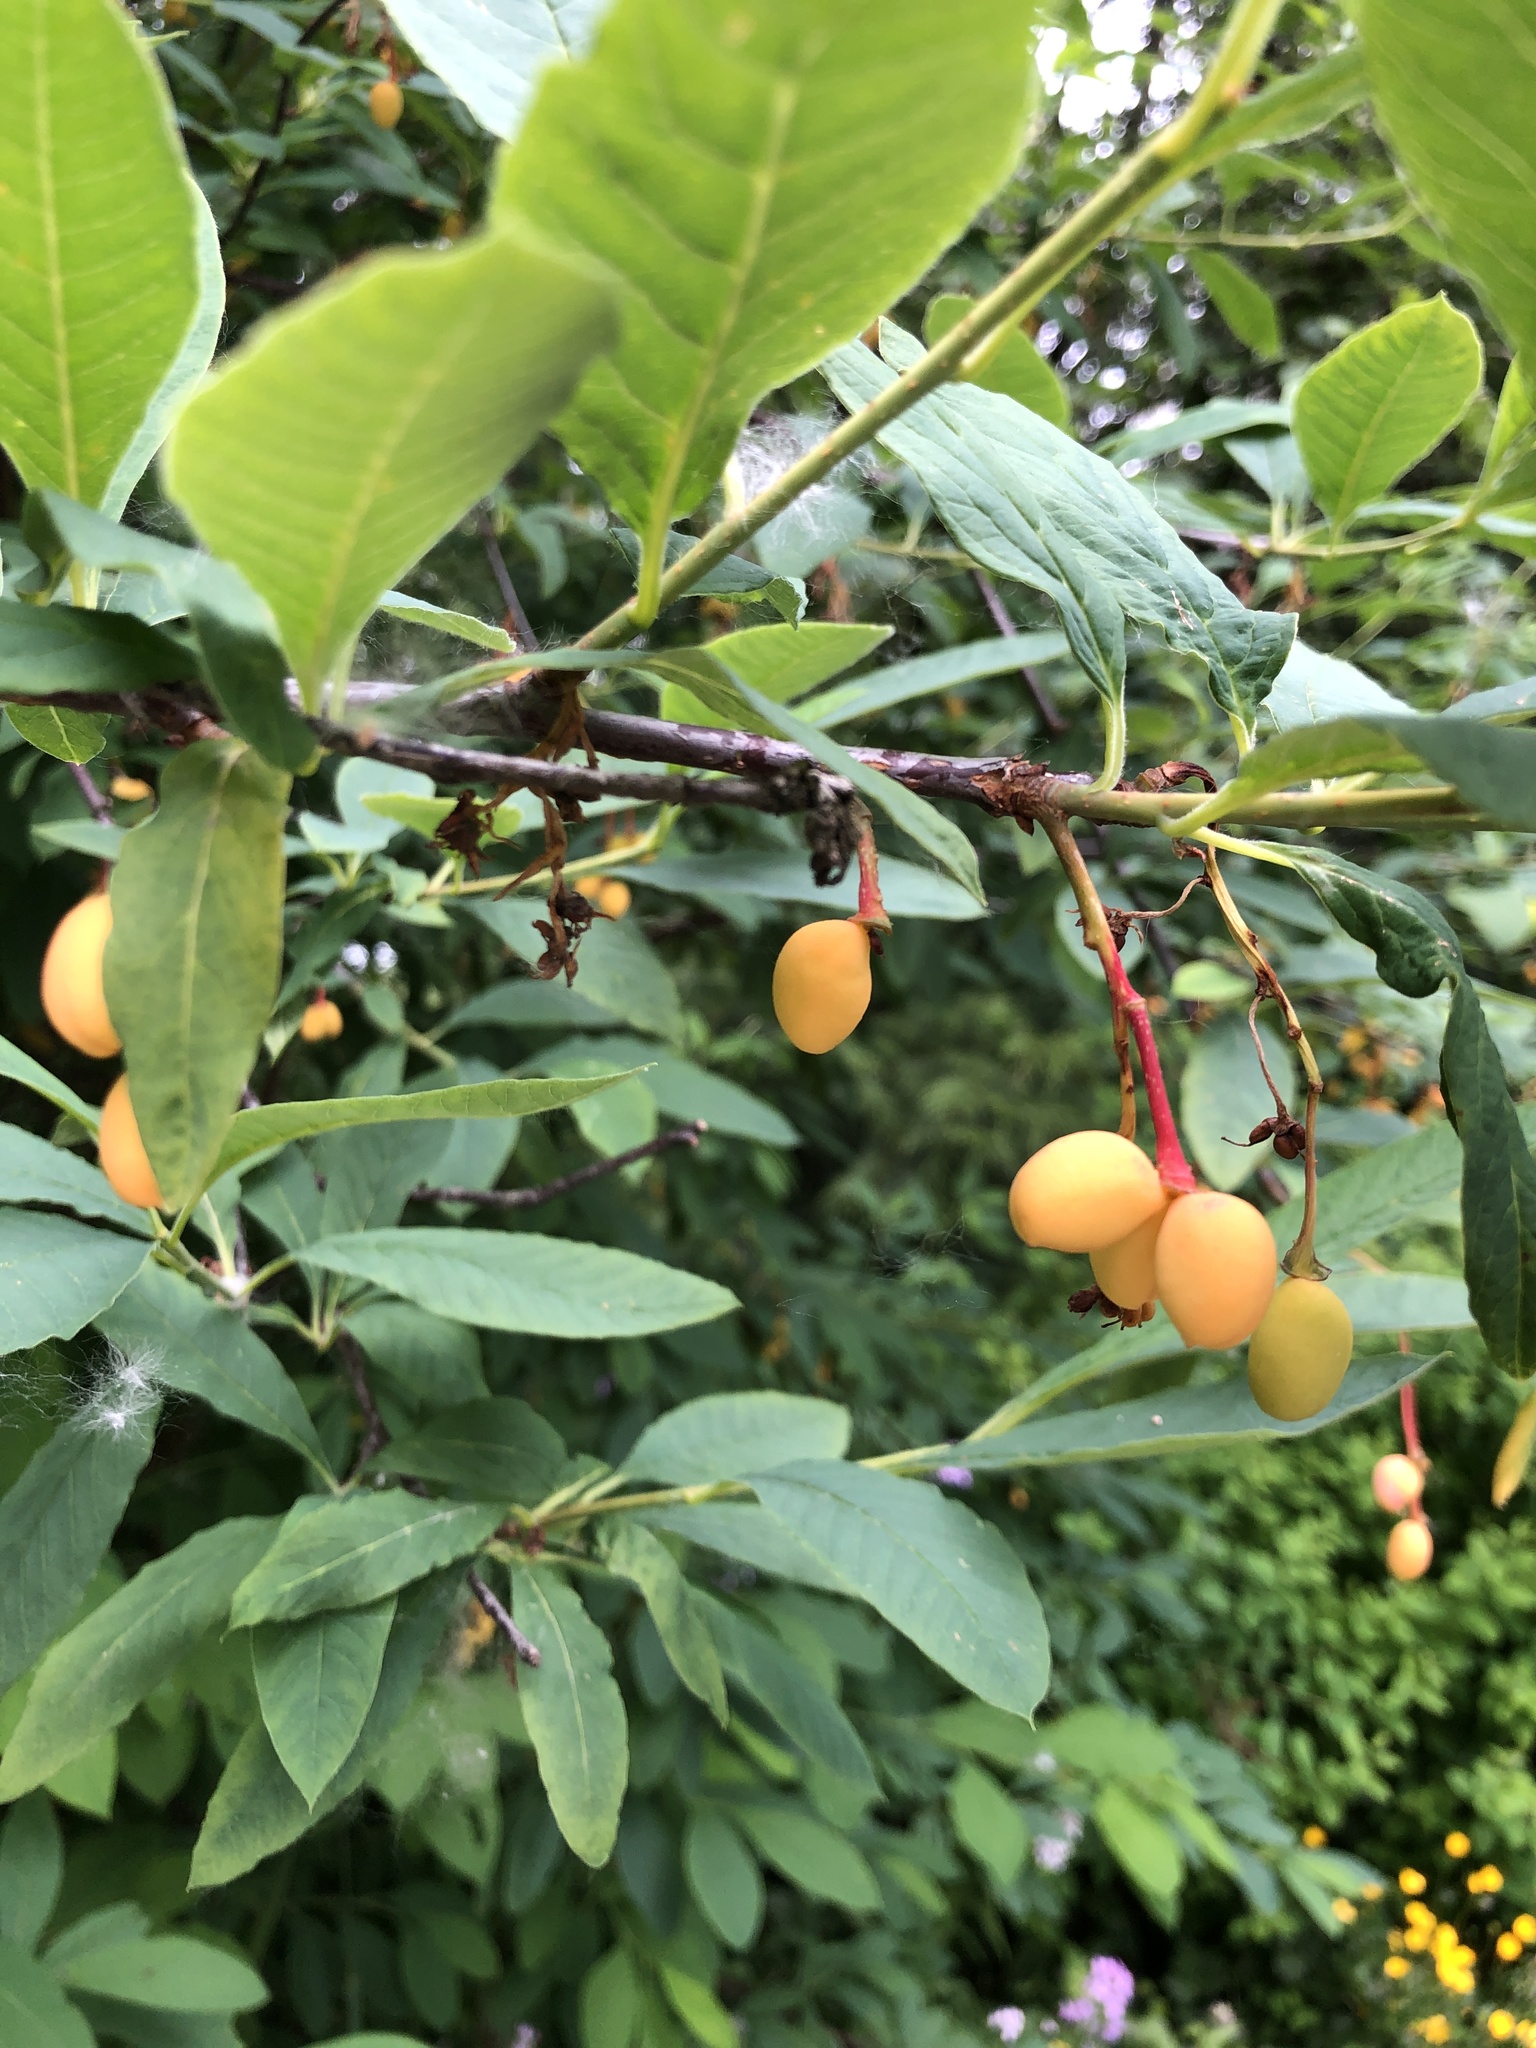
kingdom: Plantae
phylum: Tracheophyta
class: Magnoliopsida
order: Rosales
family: Rosaceae
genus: Oemleria
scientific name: Oemleria cerasiformis
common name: Osoberry
